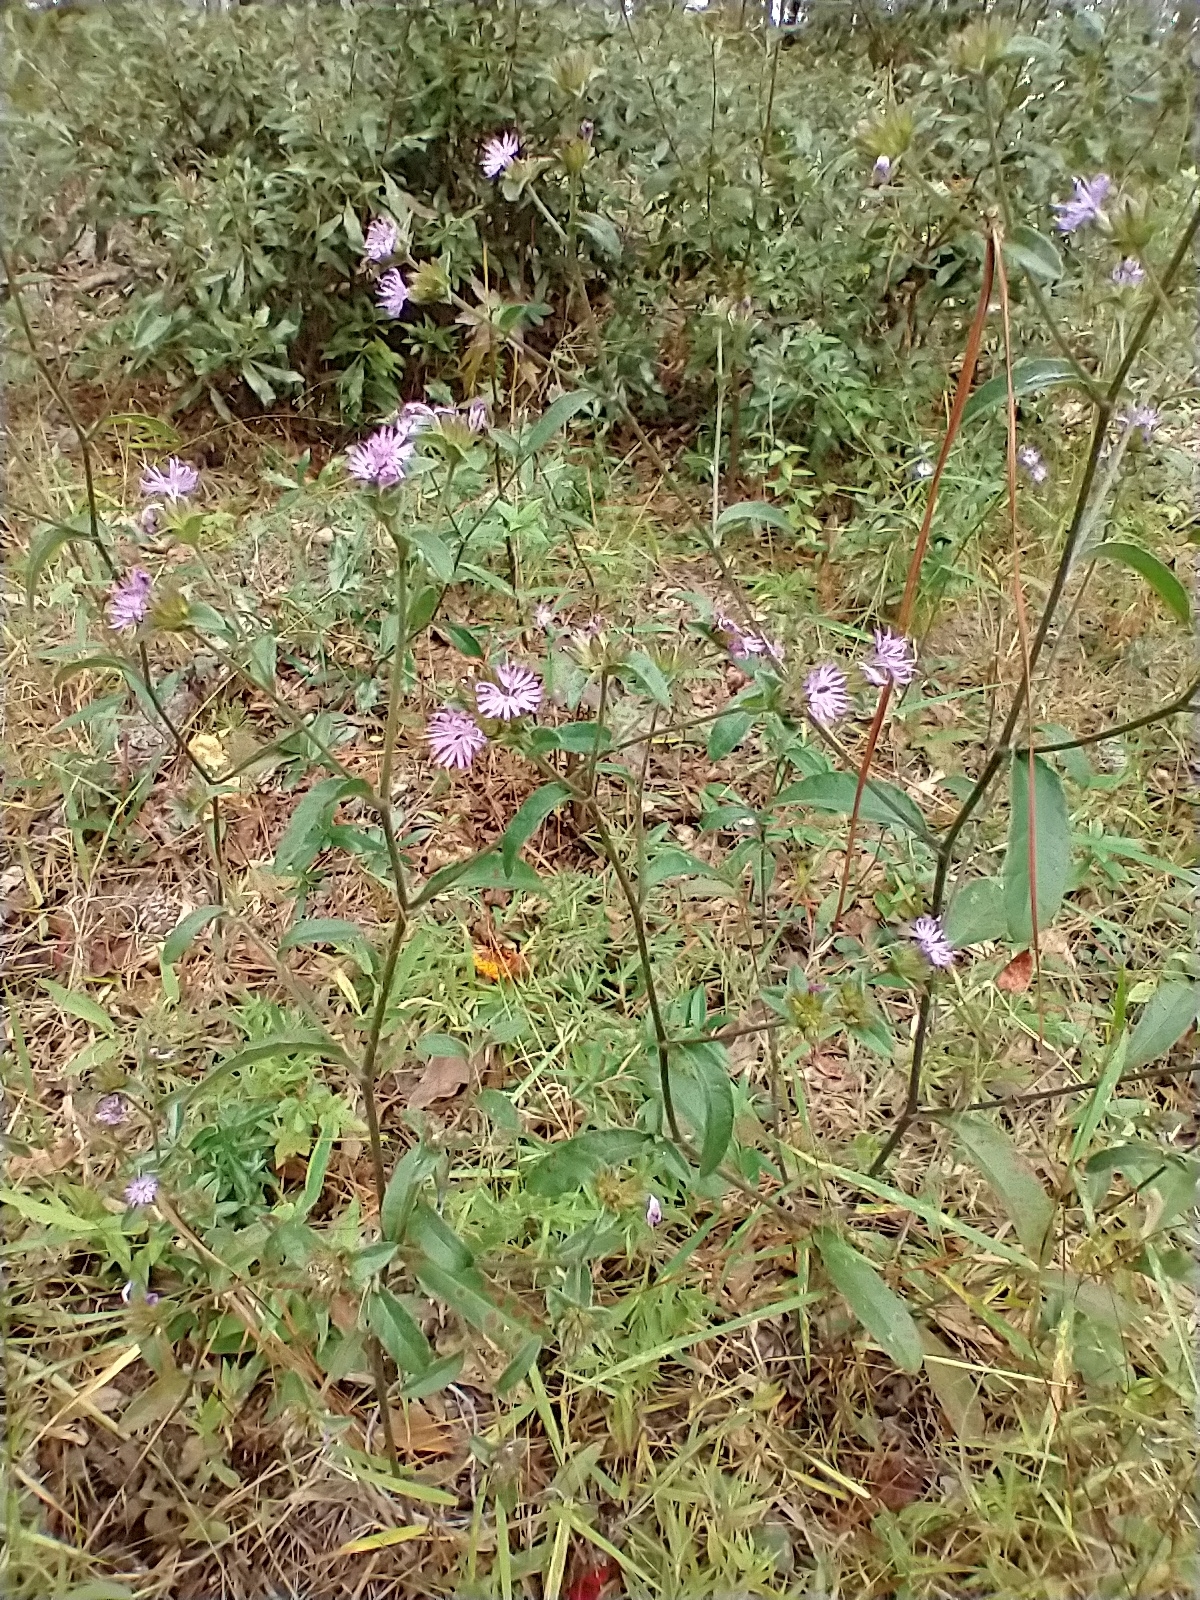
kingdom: Plantae
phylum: Tracheophyta
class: Magnoliopsida
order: Asterales
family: Asteraceae
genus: Elephantopus
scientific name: Elephantopus nudatus
